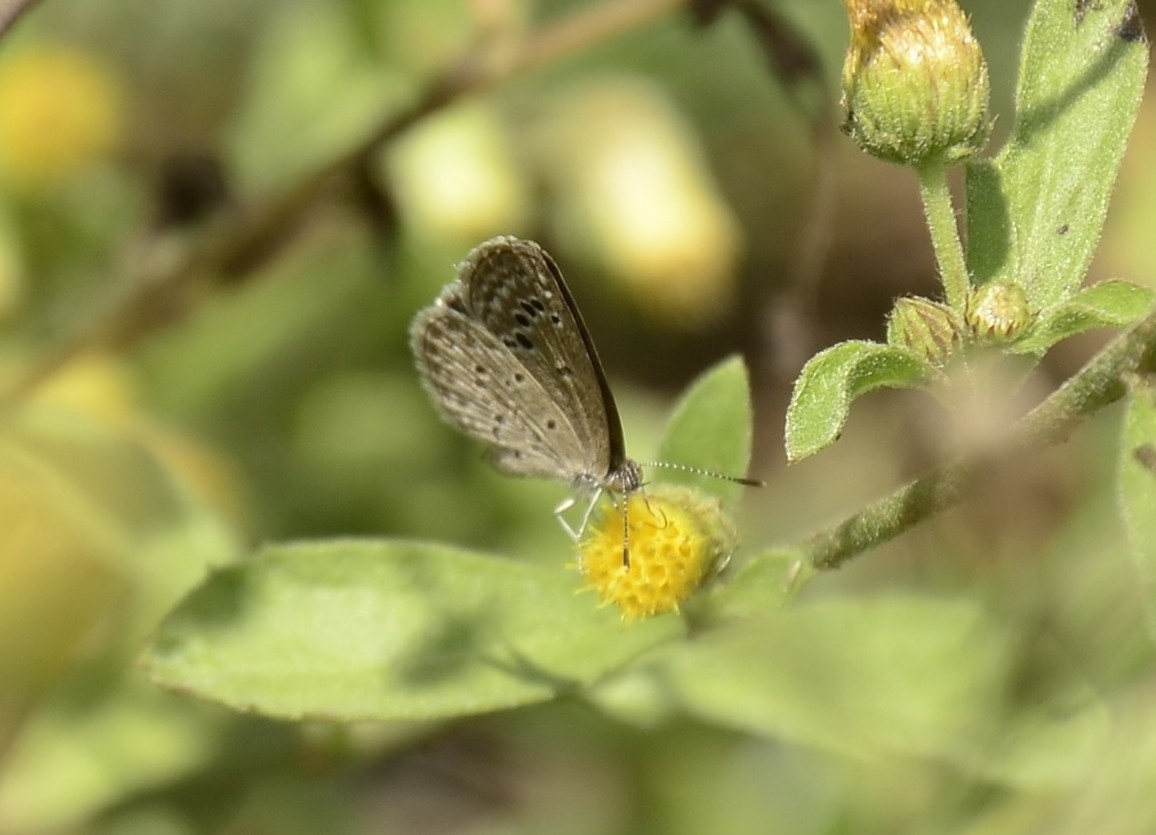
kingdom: Animalia
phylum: Arthropoda
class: Insecta
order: Lepidoptera
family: Lycaenidae
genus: Zizina
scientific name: Zizina otis
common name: Lesser grass blue
